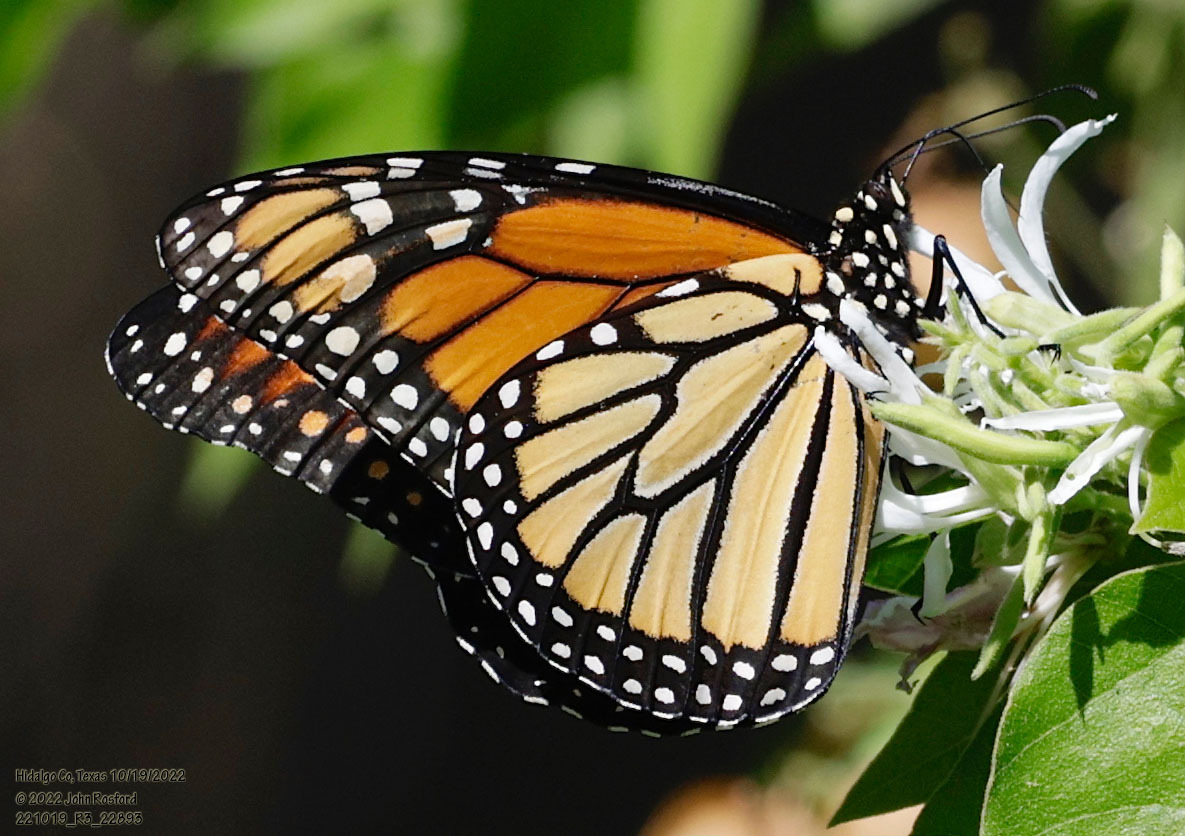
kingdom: Animalia
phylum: Arthropoda
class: Insecta
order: Lepidoptera
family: Nymphalidae
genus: Danaus
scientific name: Danaus plexippus
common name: Monarch
